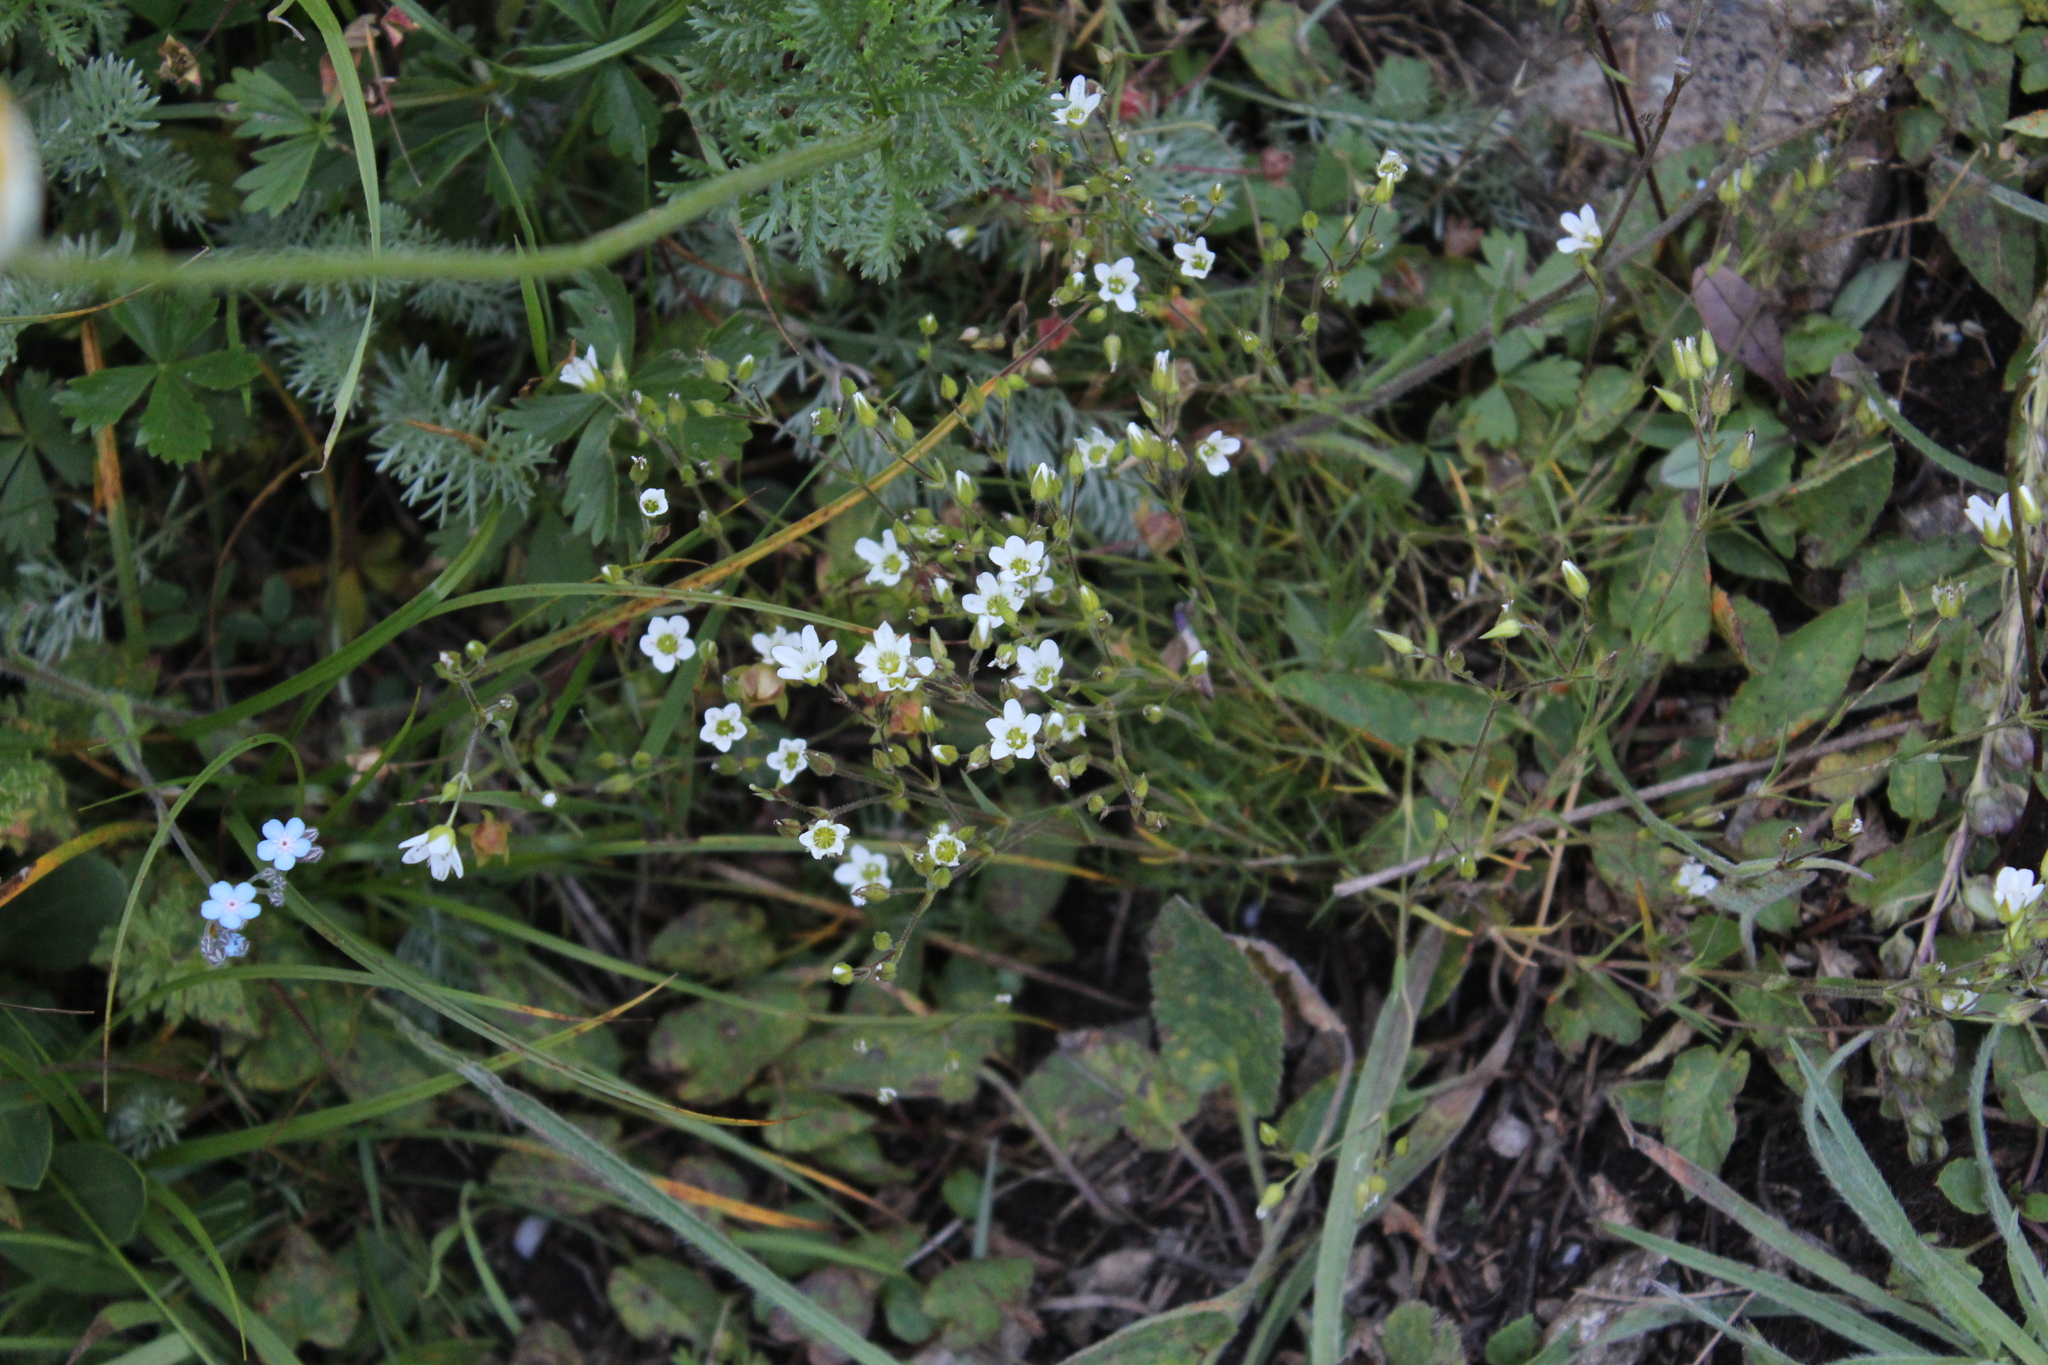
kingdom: Plantae
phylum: Tracheophyta
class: Magnoliopsida
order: Caryophyllales
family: Caryophyllaceae
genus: Minuartia
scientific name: Minuartia hirsuta
